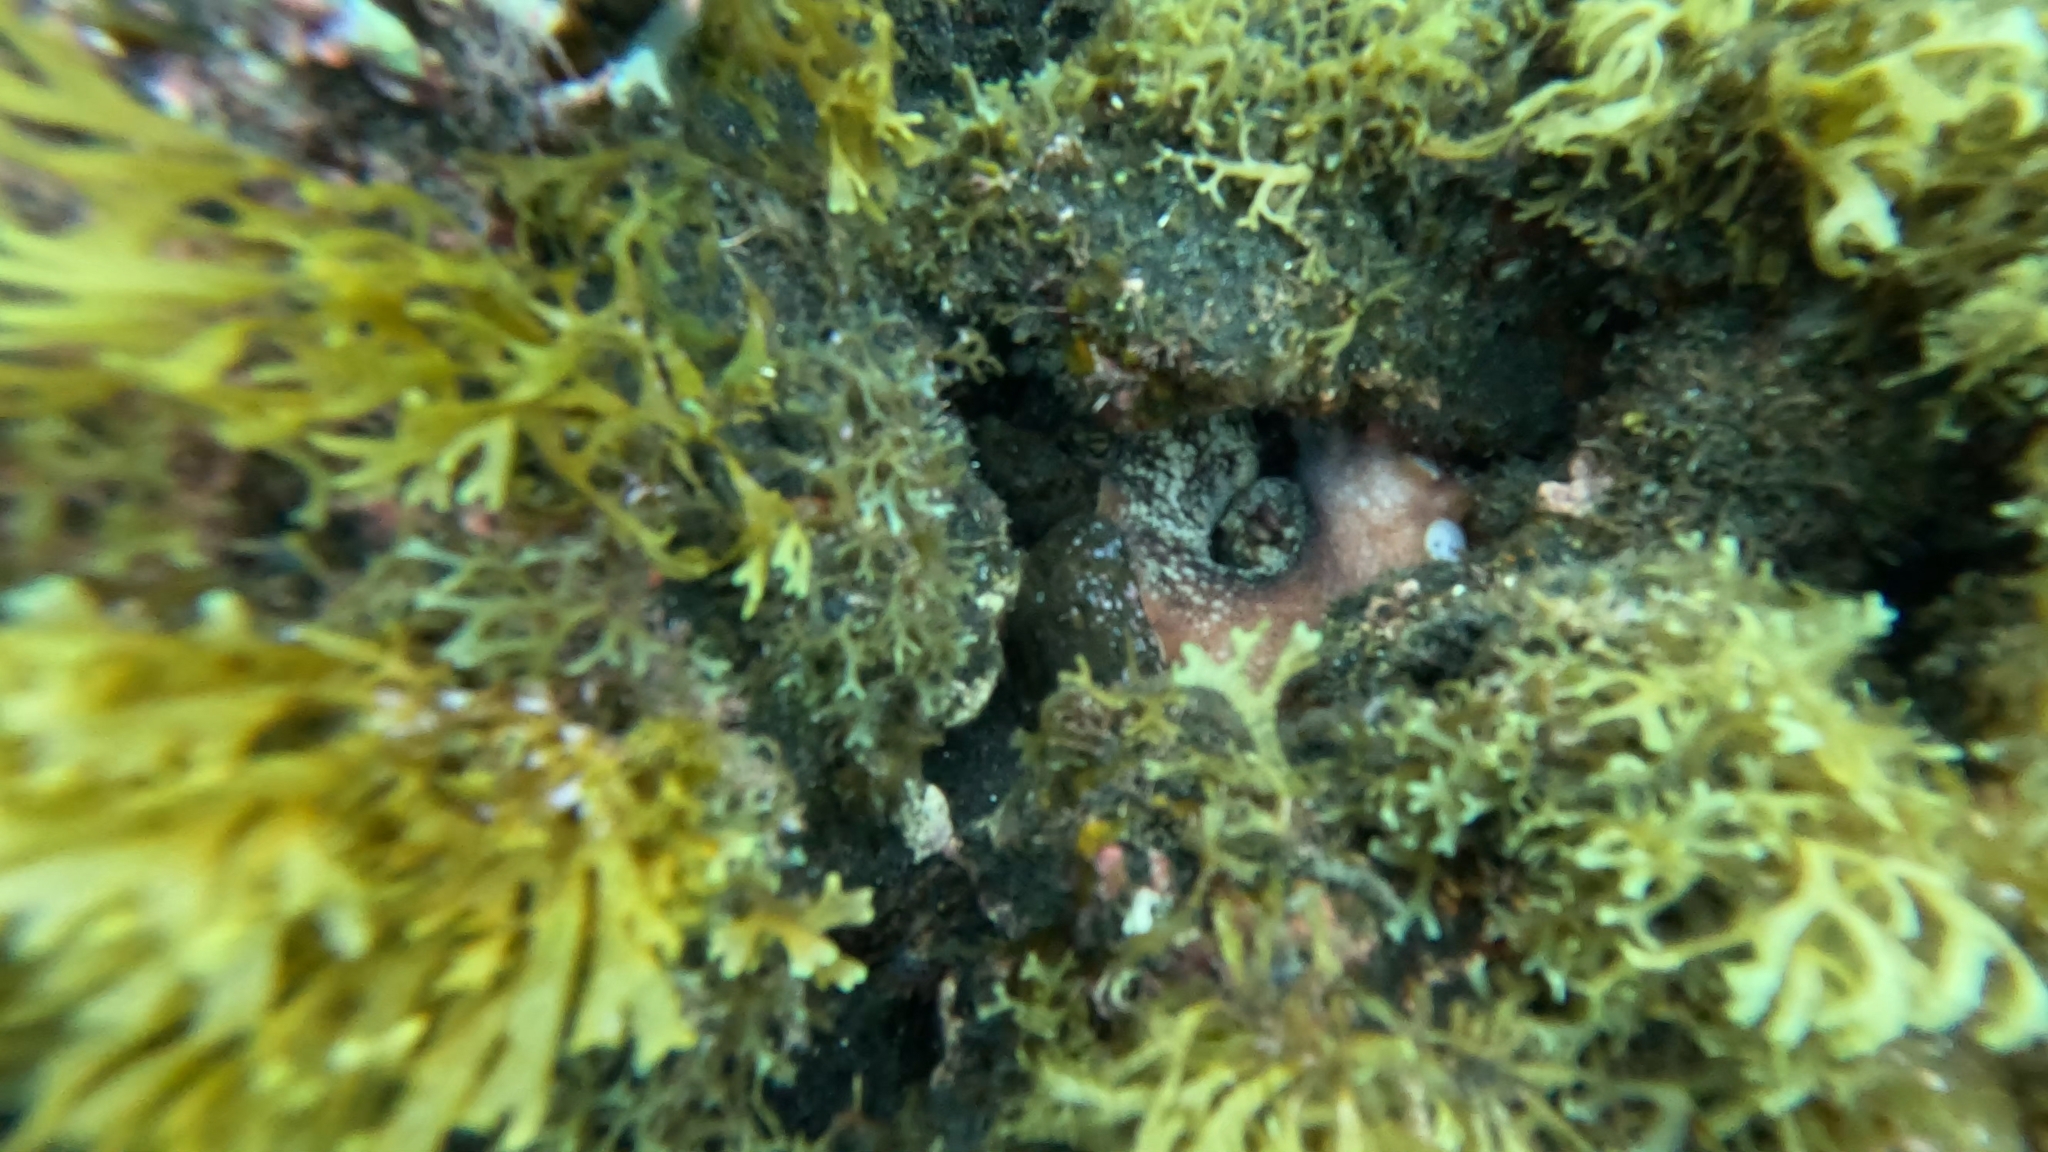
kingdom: Animalia
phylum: Mollusca
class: Cephalopoda
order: Octopoda
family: Octopodidae
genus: Octopus
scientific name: Octopus vulgaris
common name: Common octopus
